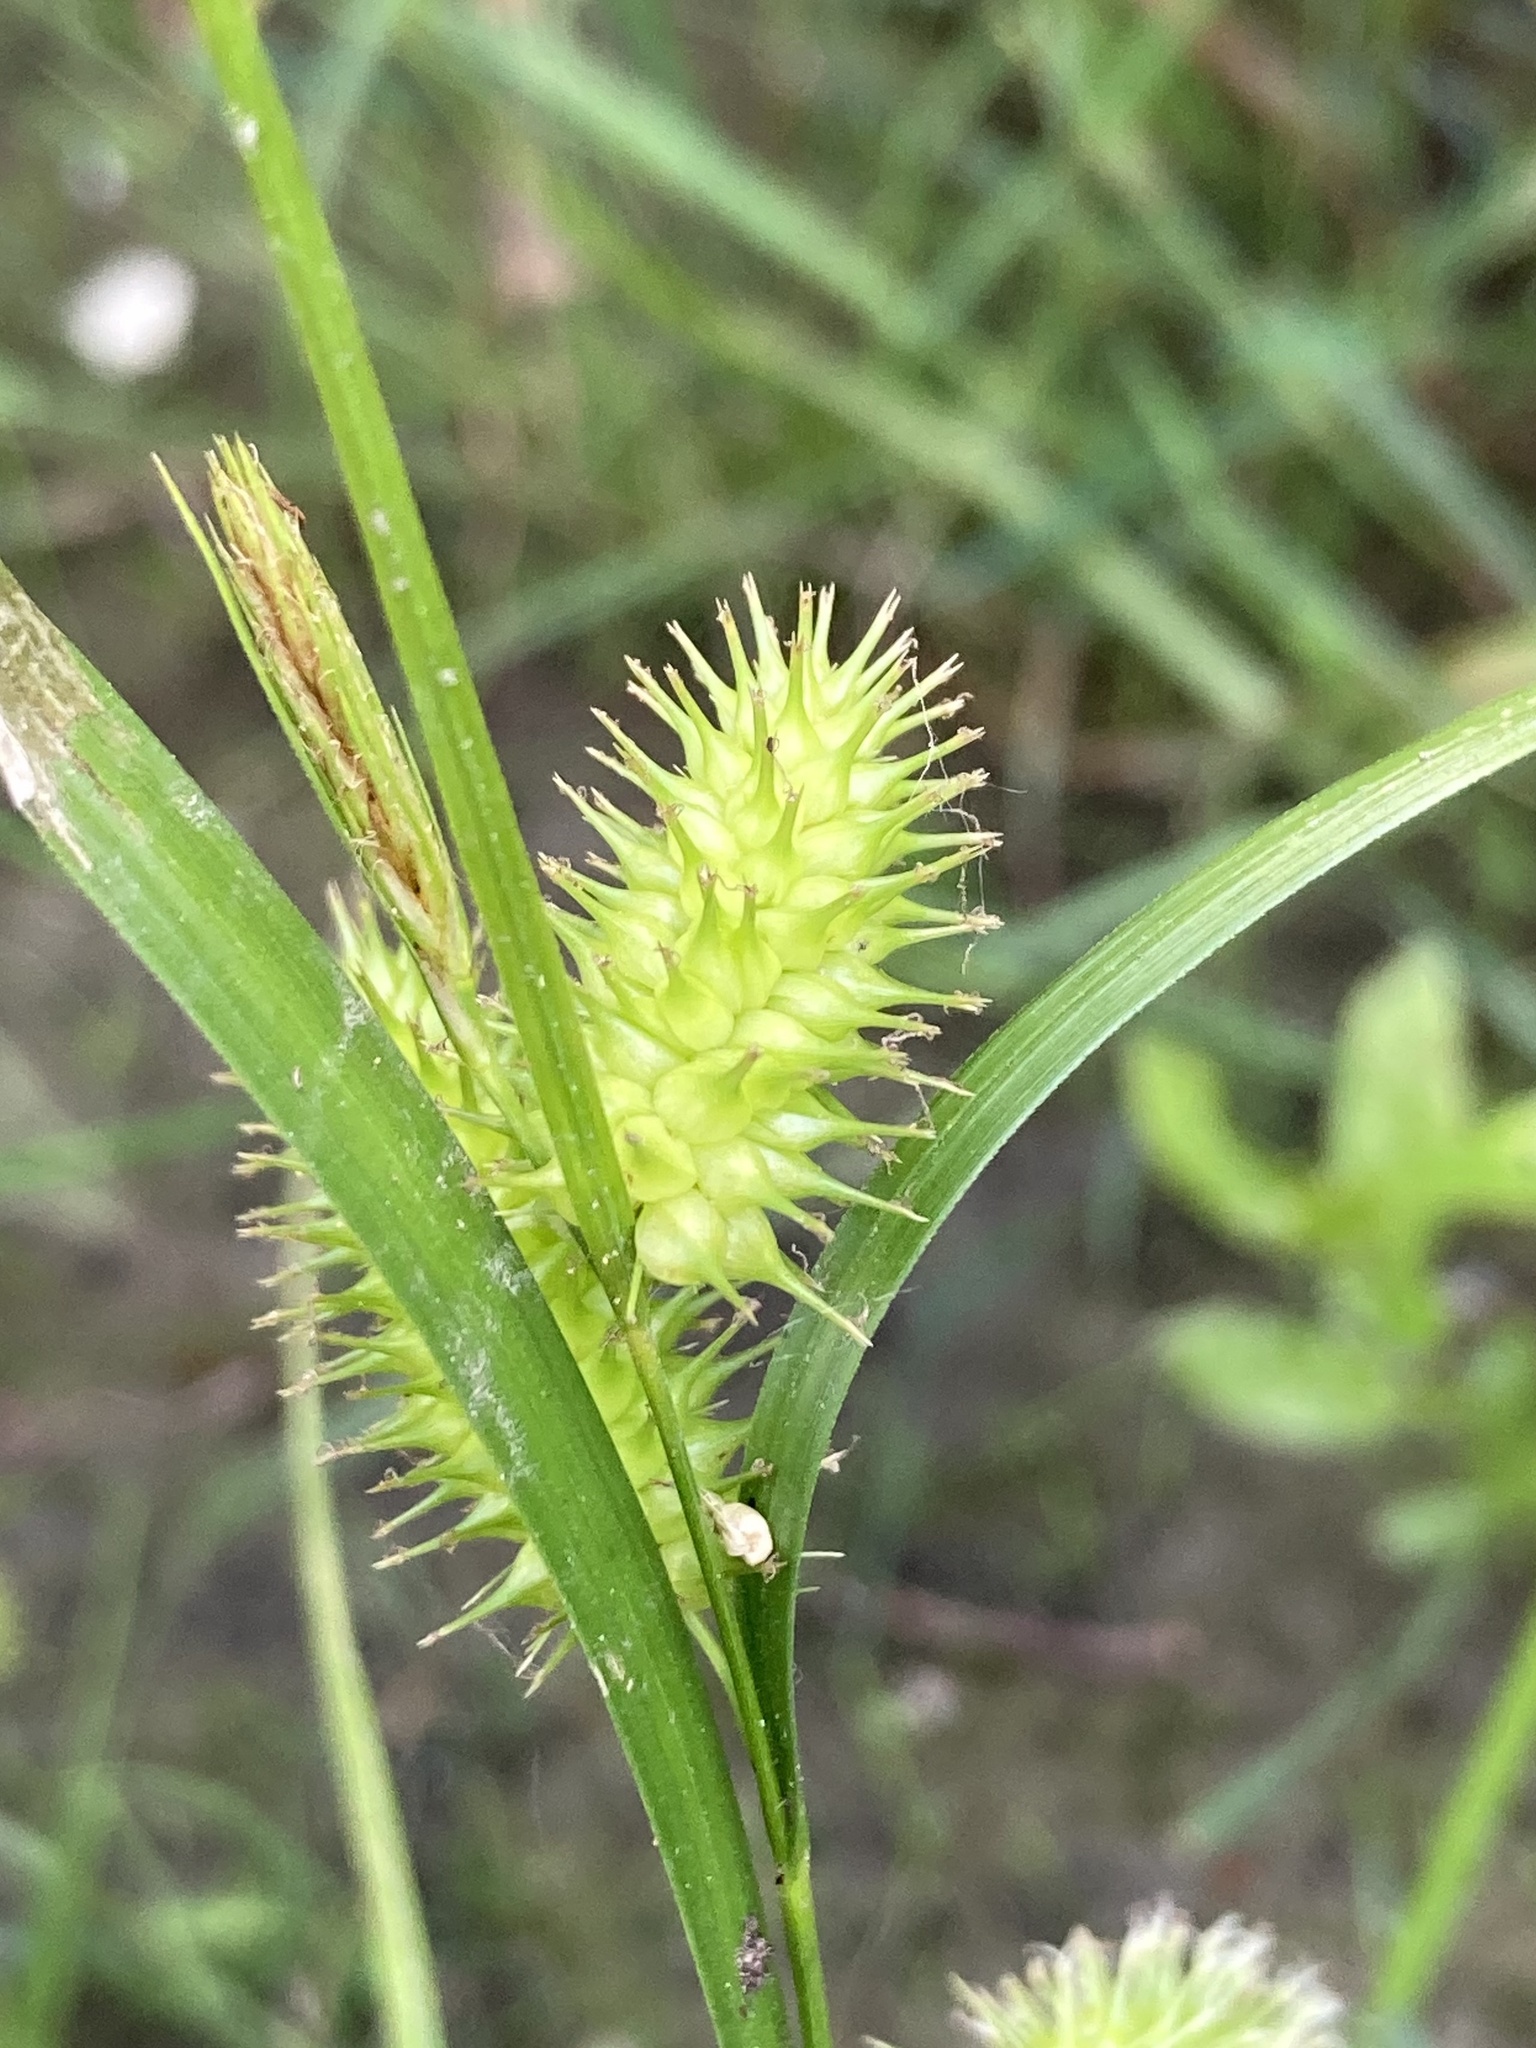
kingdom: Plantae
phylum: Tracheophyta
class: Liliopsida
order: Poales
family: Cyperaceae
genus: Carex
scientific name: Carex hystericina
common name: Bottlebrush sedge
